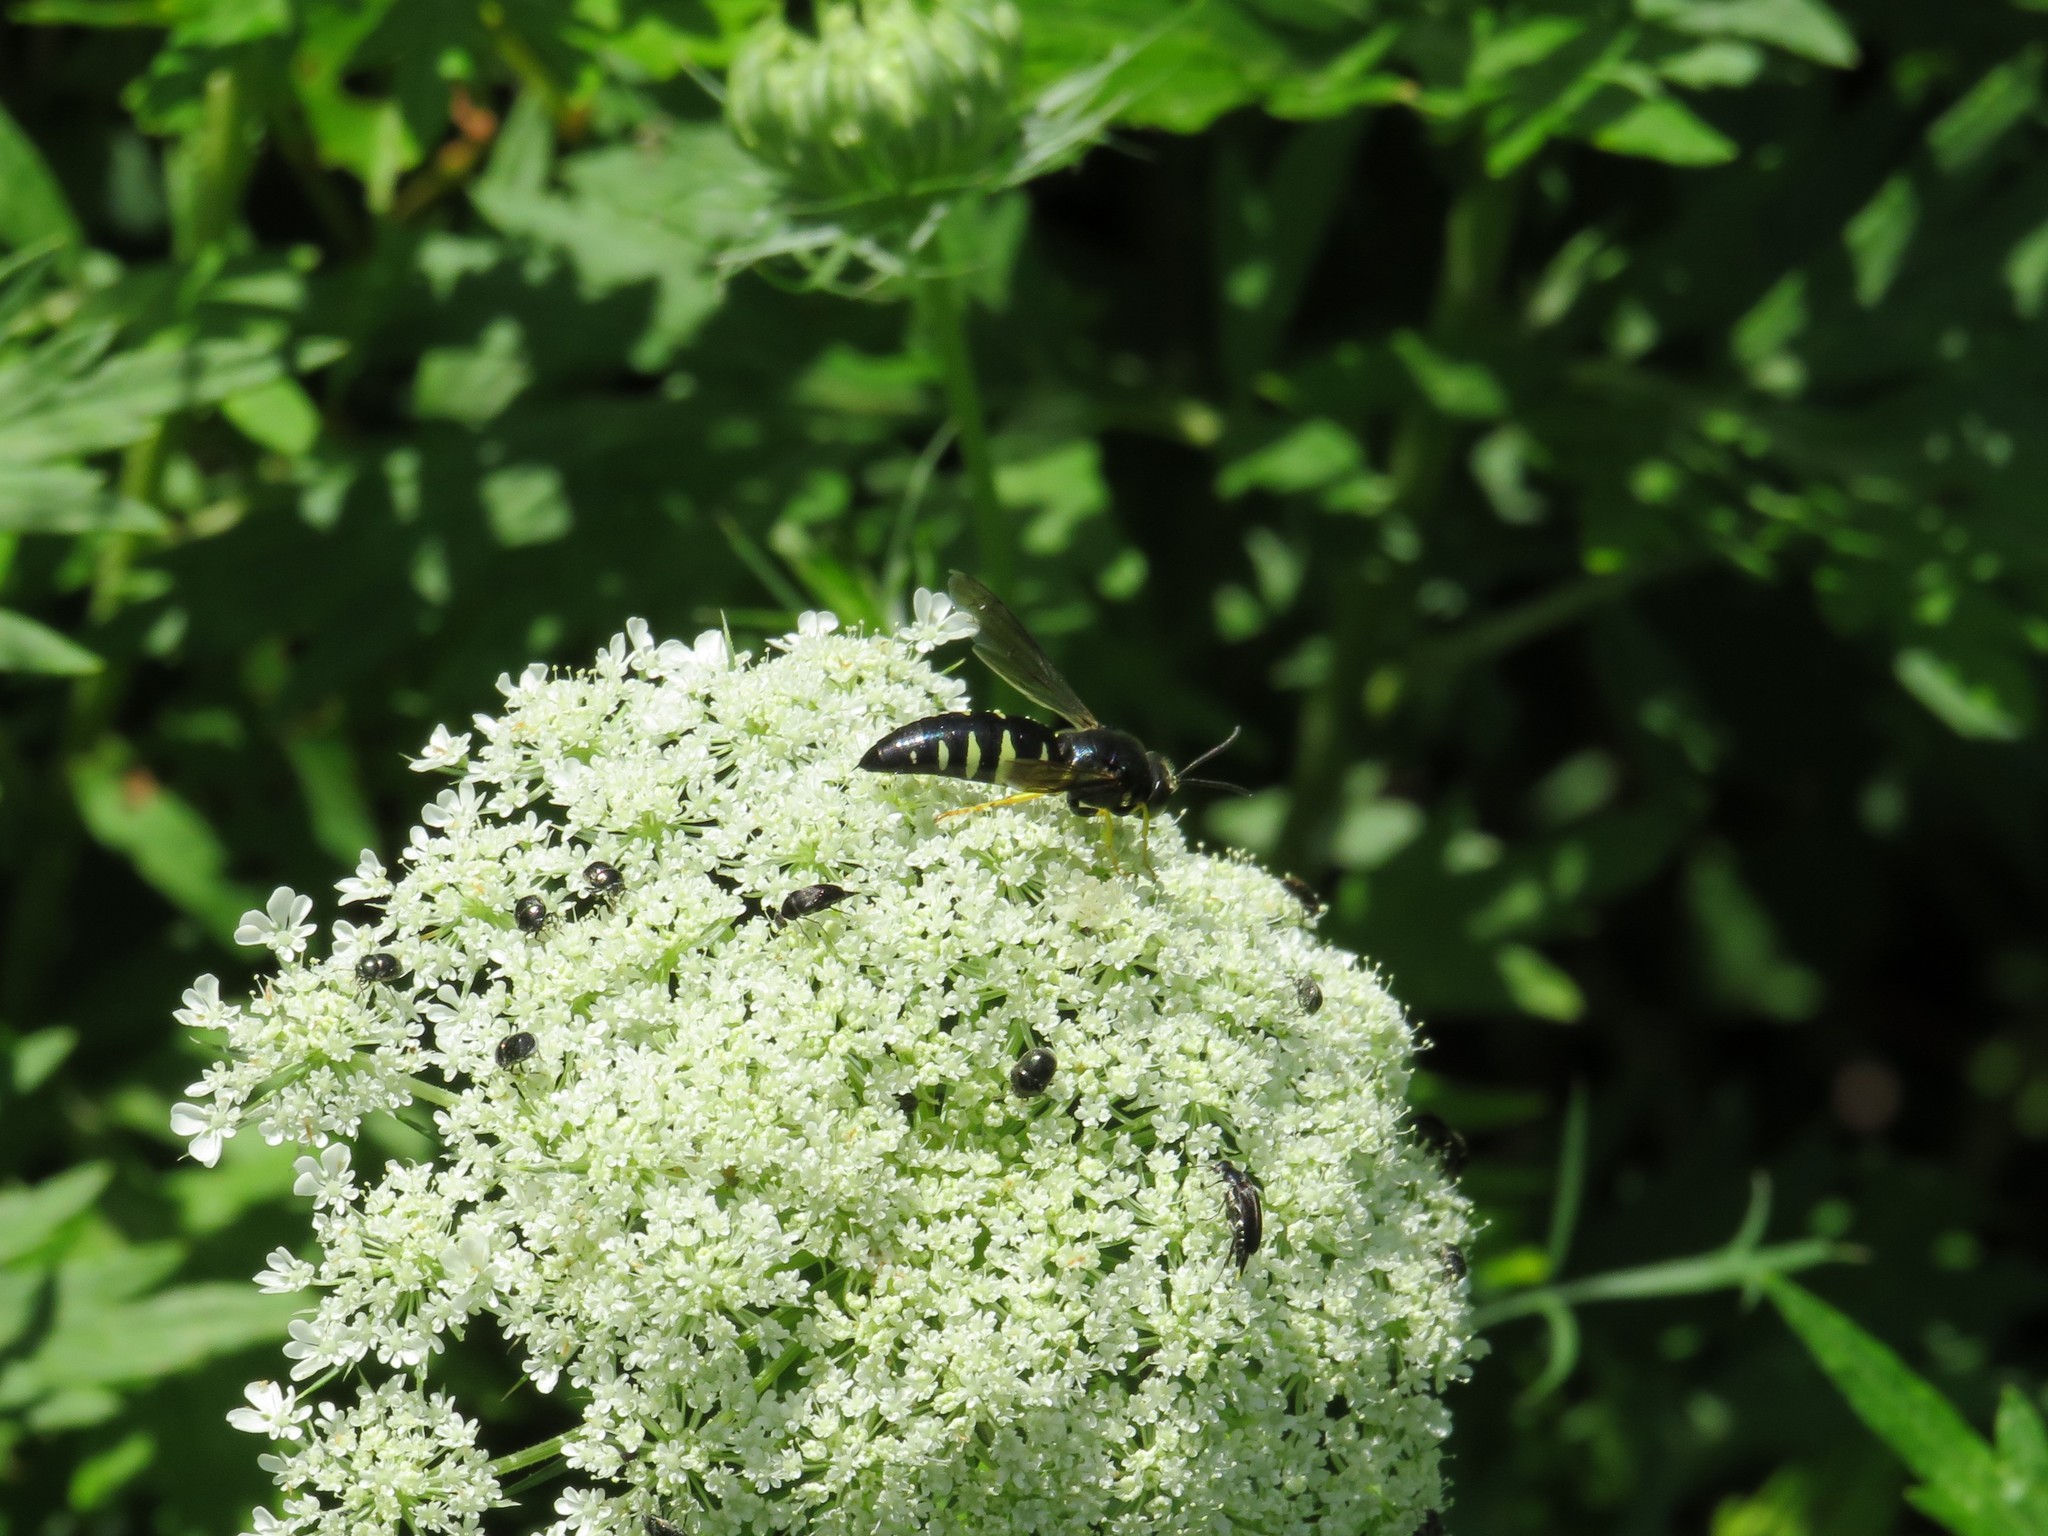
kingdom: Animalia
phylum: Arthropoda
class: Insecta
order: Hymenoptera
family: Crabronidae
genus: Bicyrtes
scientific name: Bicyrtes quadrifasciatus
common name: Four-banded stink bug hunter wasp
